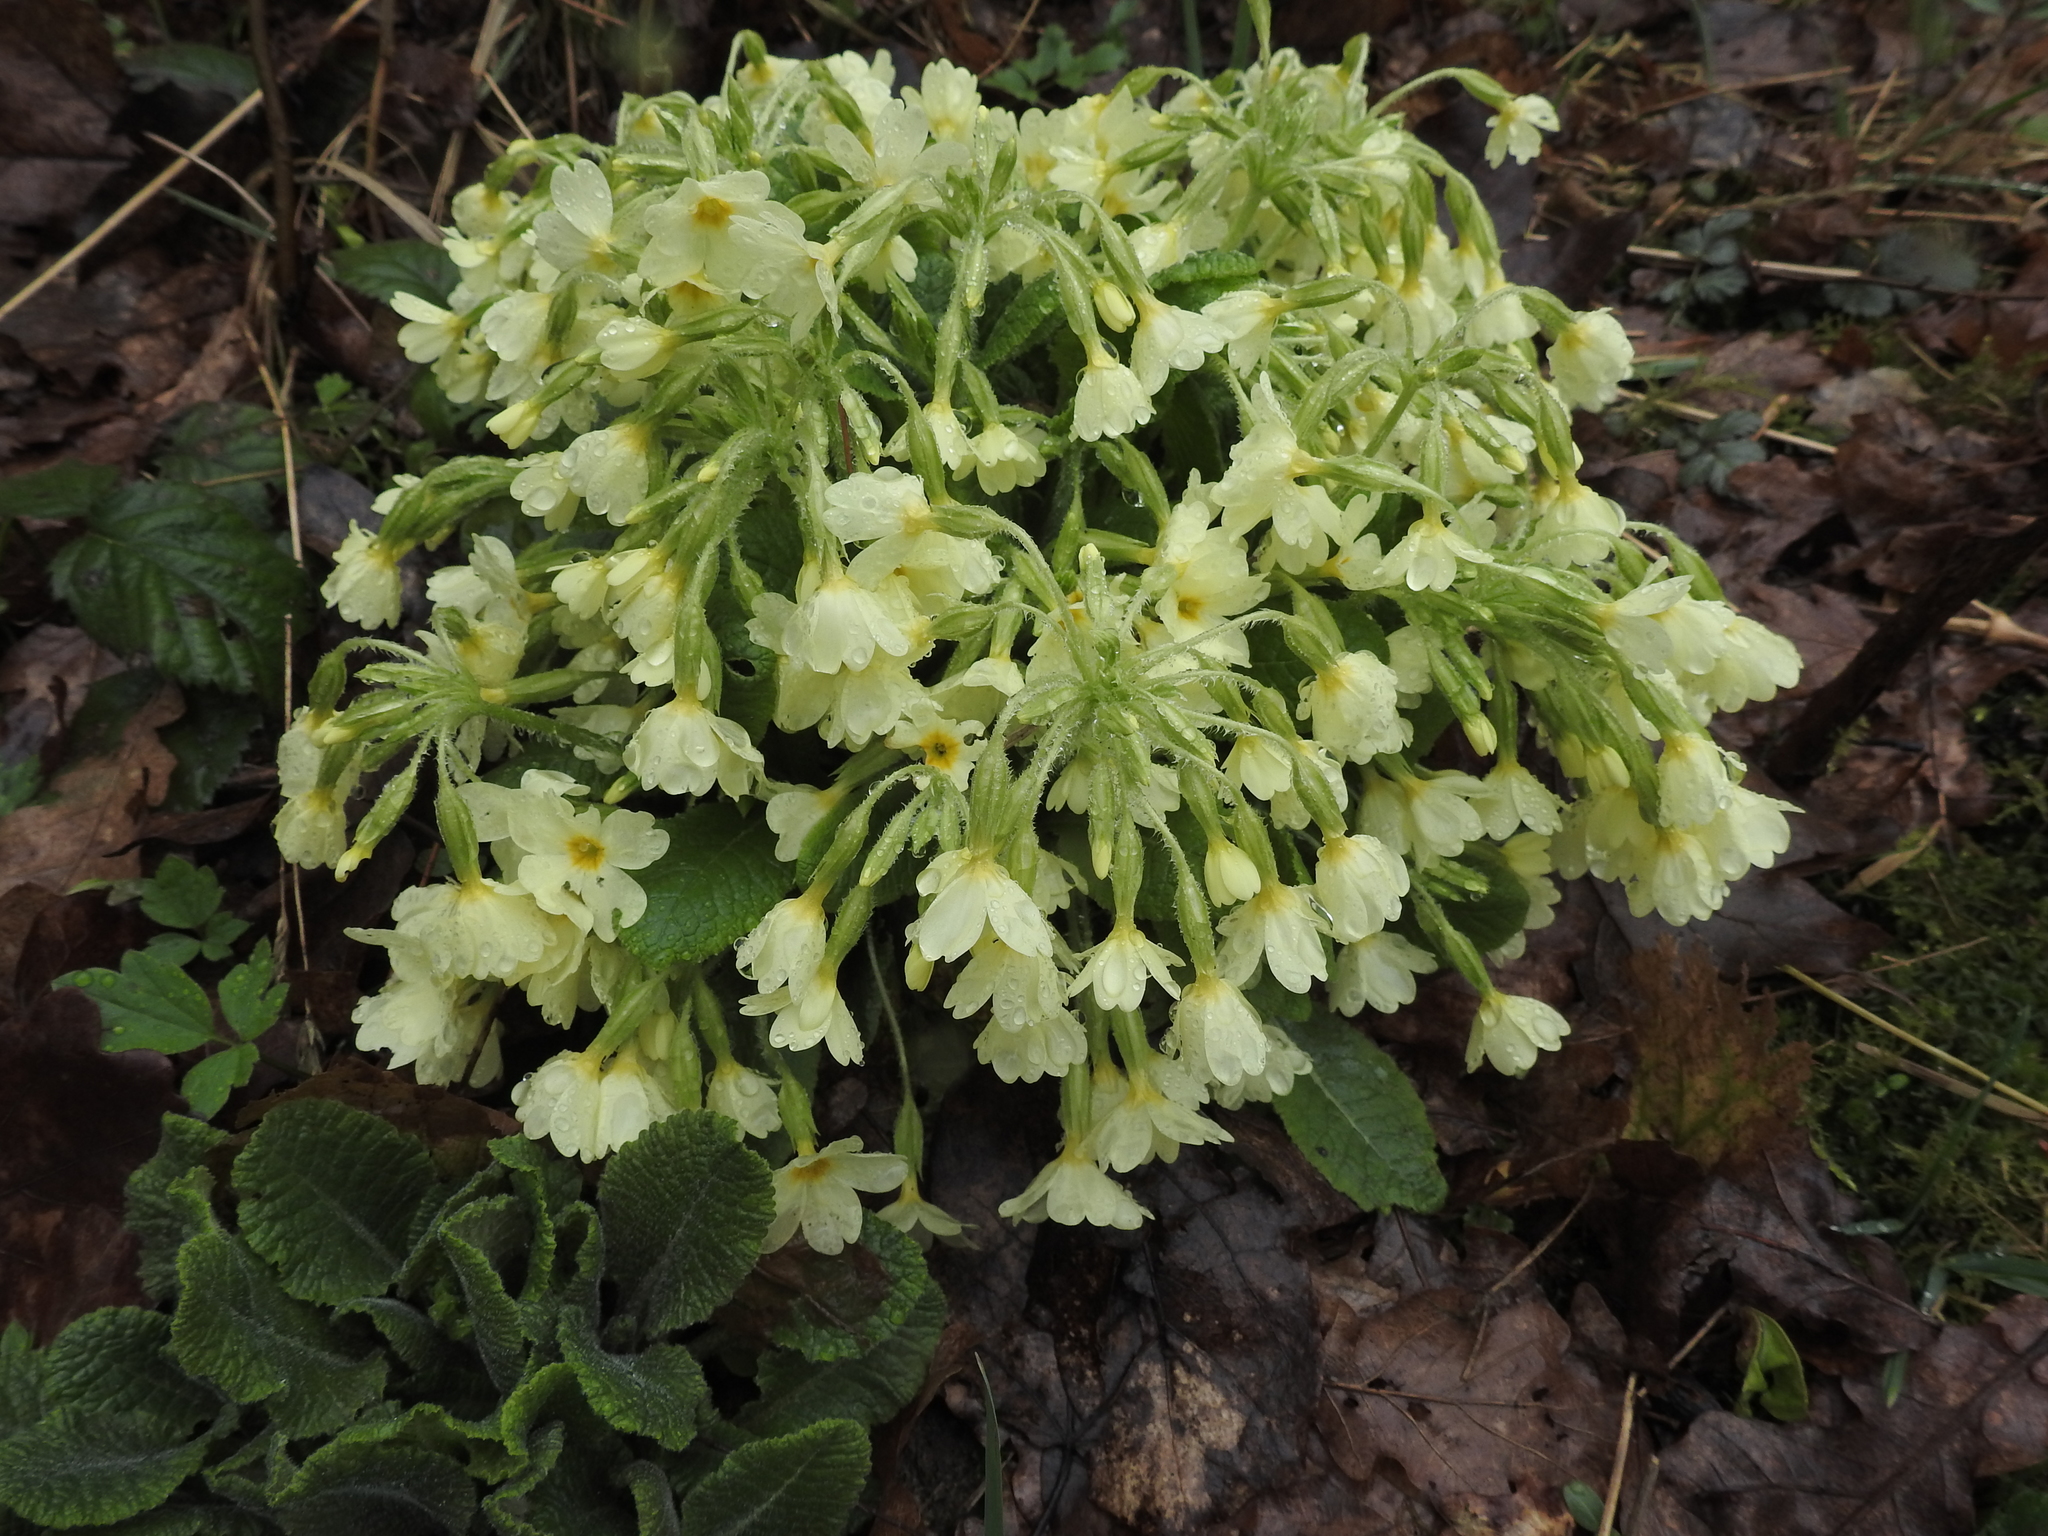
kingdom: Plantae
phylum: Tracheophyta
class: Magnoliopsida
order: Ericales
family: Primulaceae
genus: Primula
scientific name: Primula elatior
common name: Oxlip
